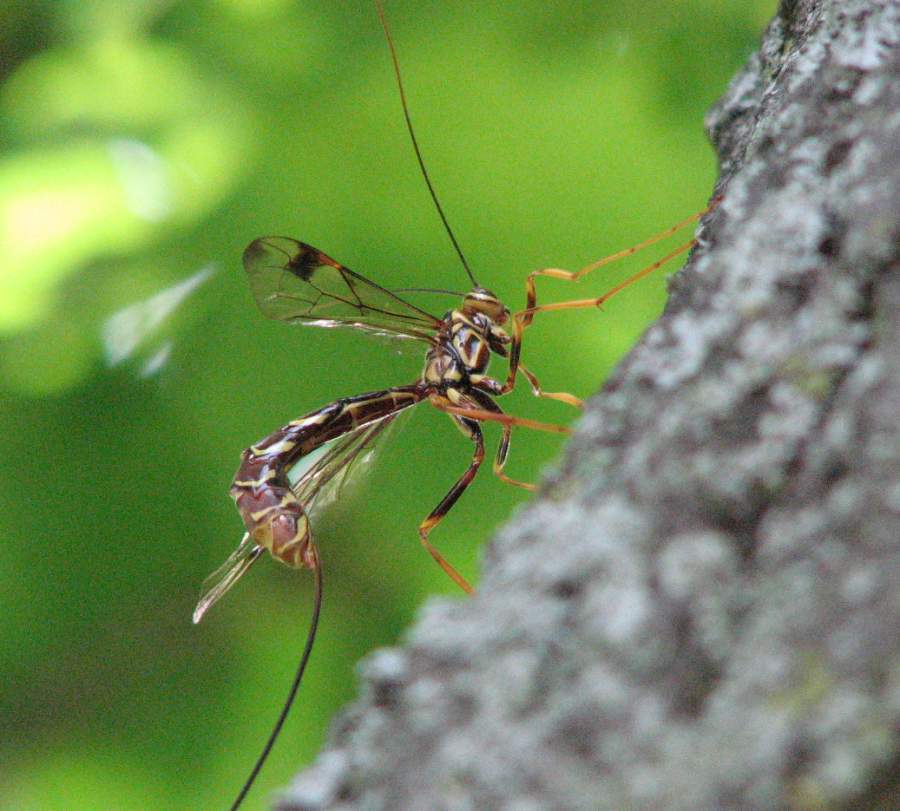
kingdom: Animalia
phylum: Arthropoda
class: Insecta
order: Hymenoptera
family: Ichneumonidae
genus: Megarhyssa
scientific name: Megarhyssa macrura
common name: Long-tailed giant ichneumonid wasp
